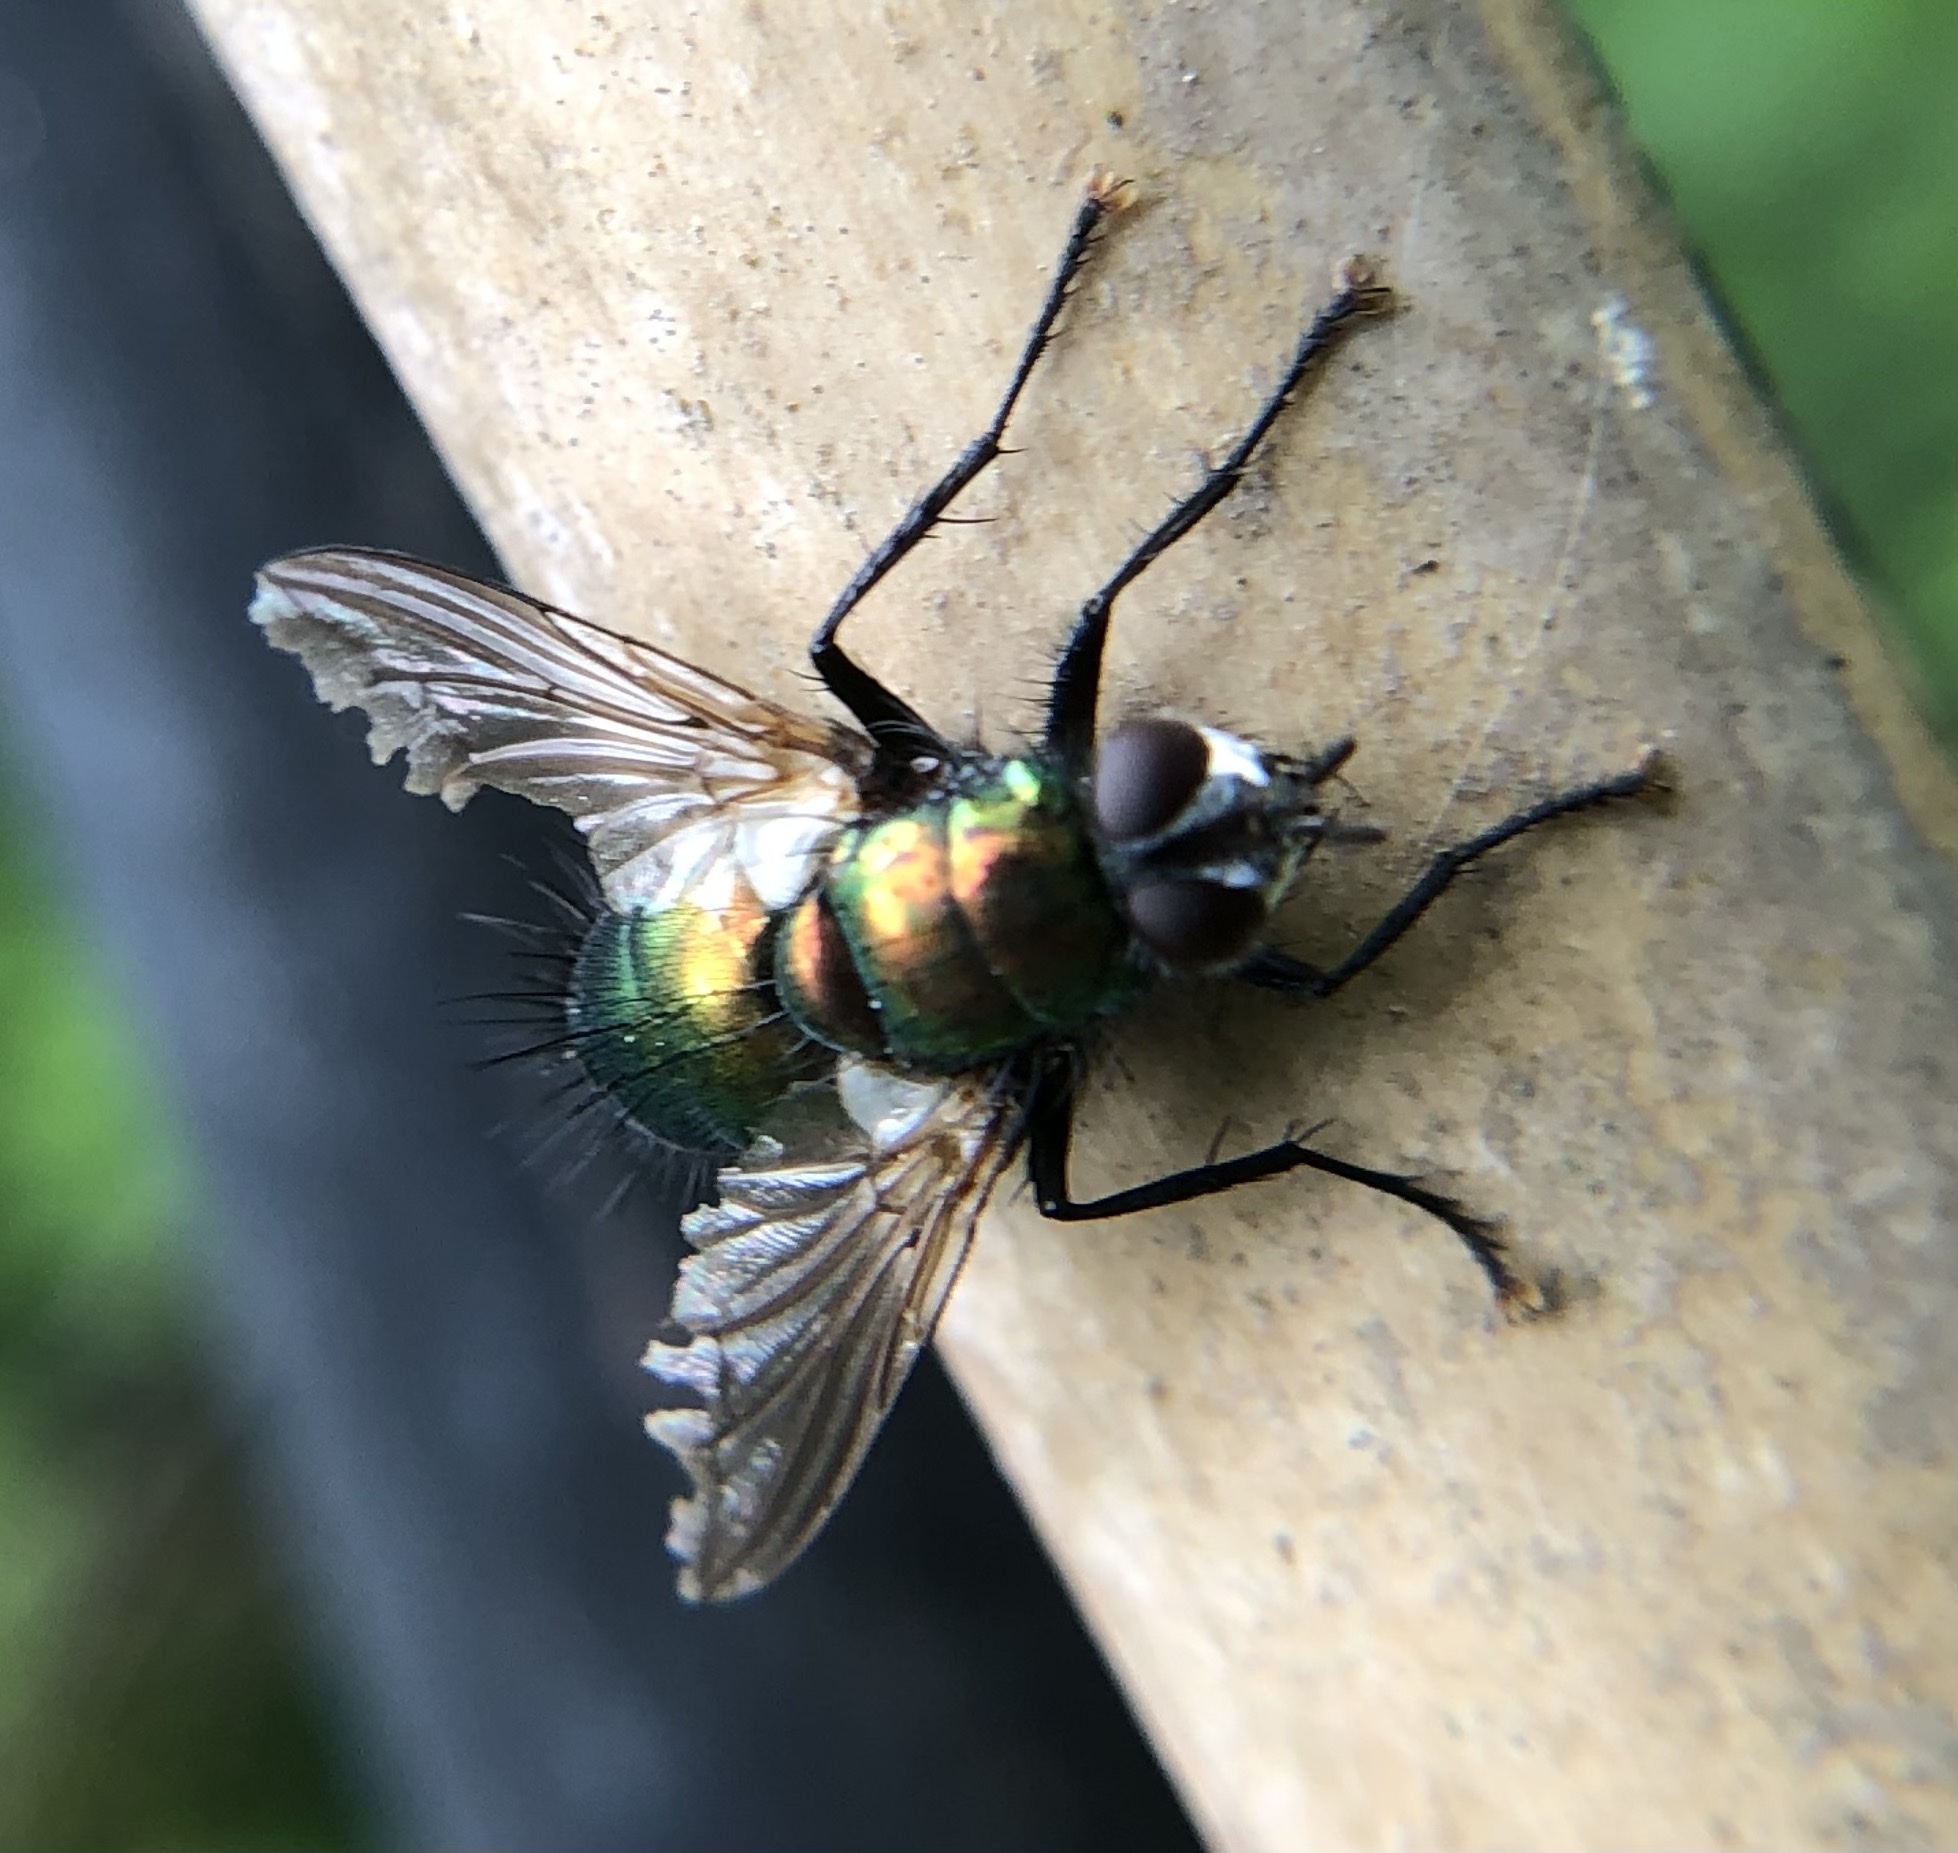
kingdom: Animalia
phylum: Arthropoda
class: Insecta
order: Diptera
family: Tachinidae
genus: Gymnocheta
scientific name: Gymnocheta viridis
